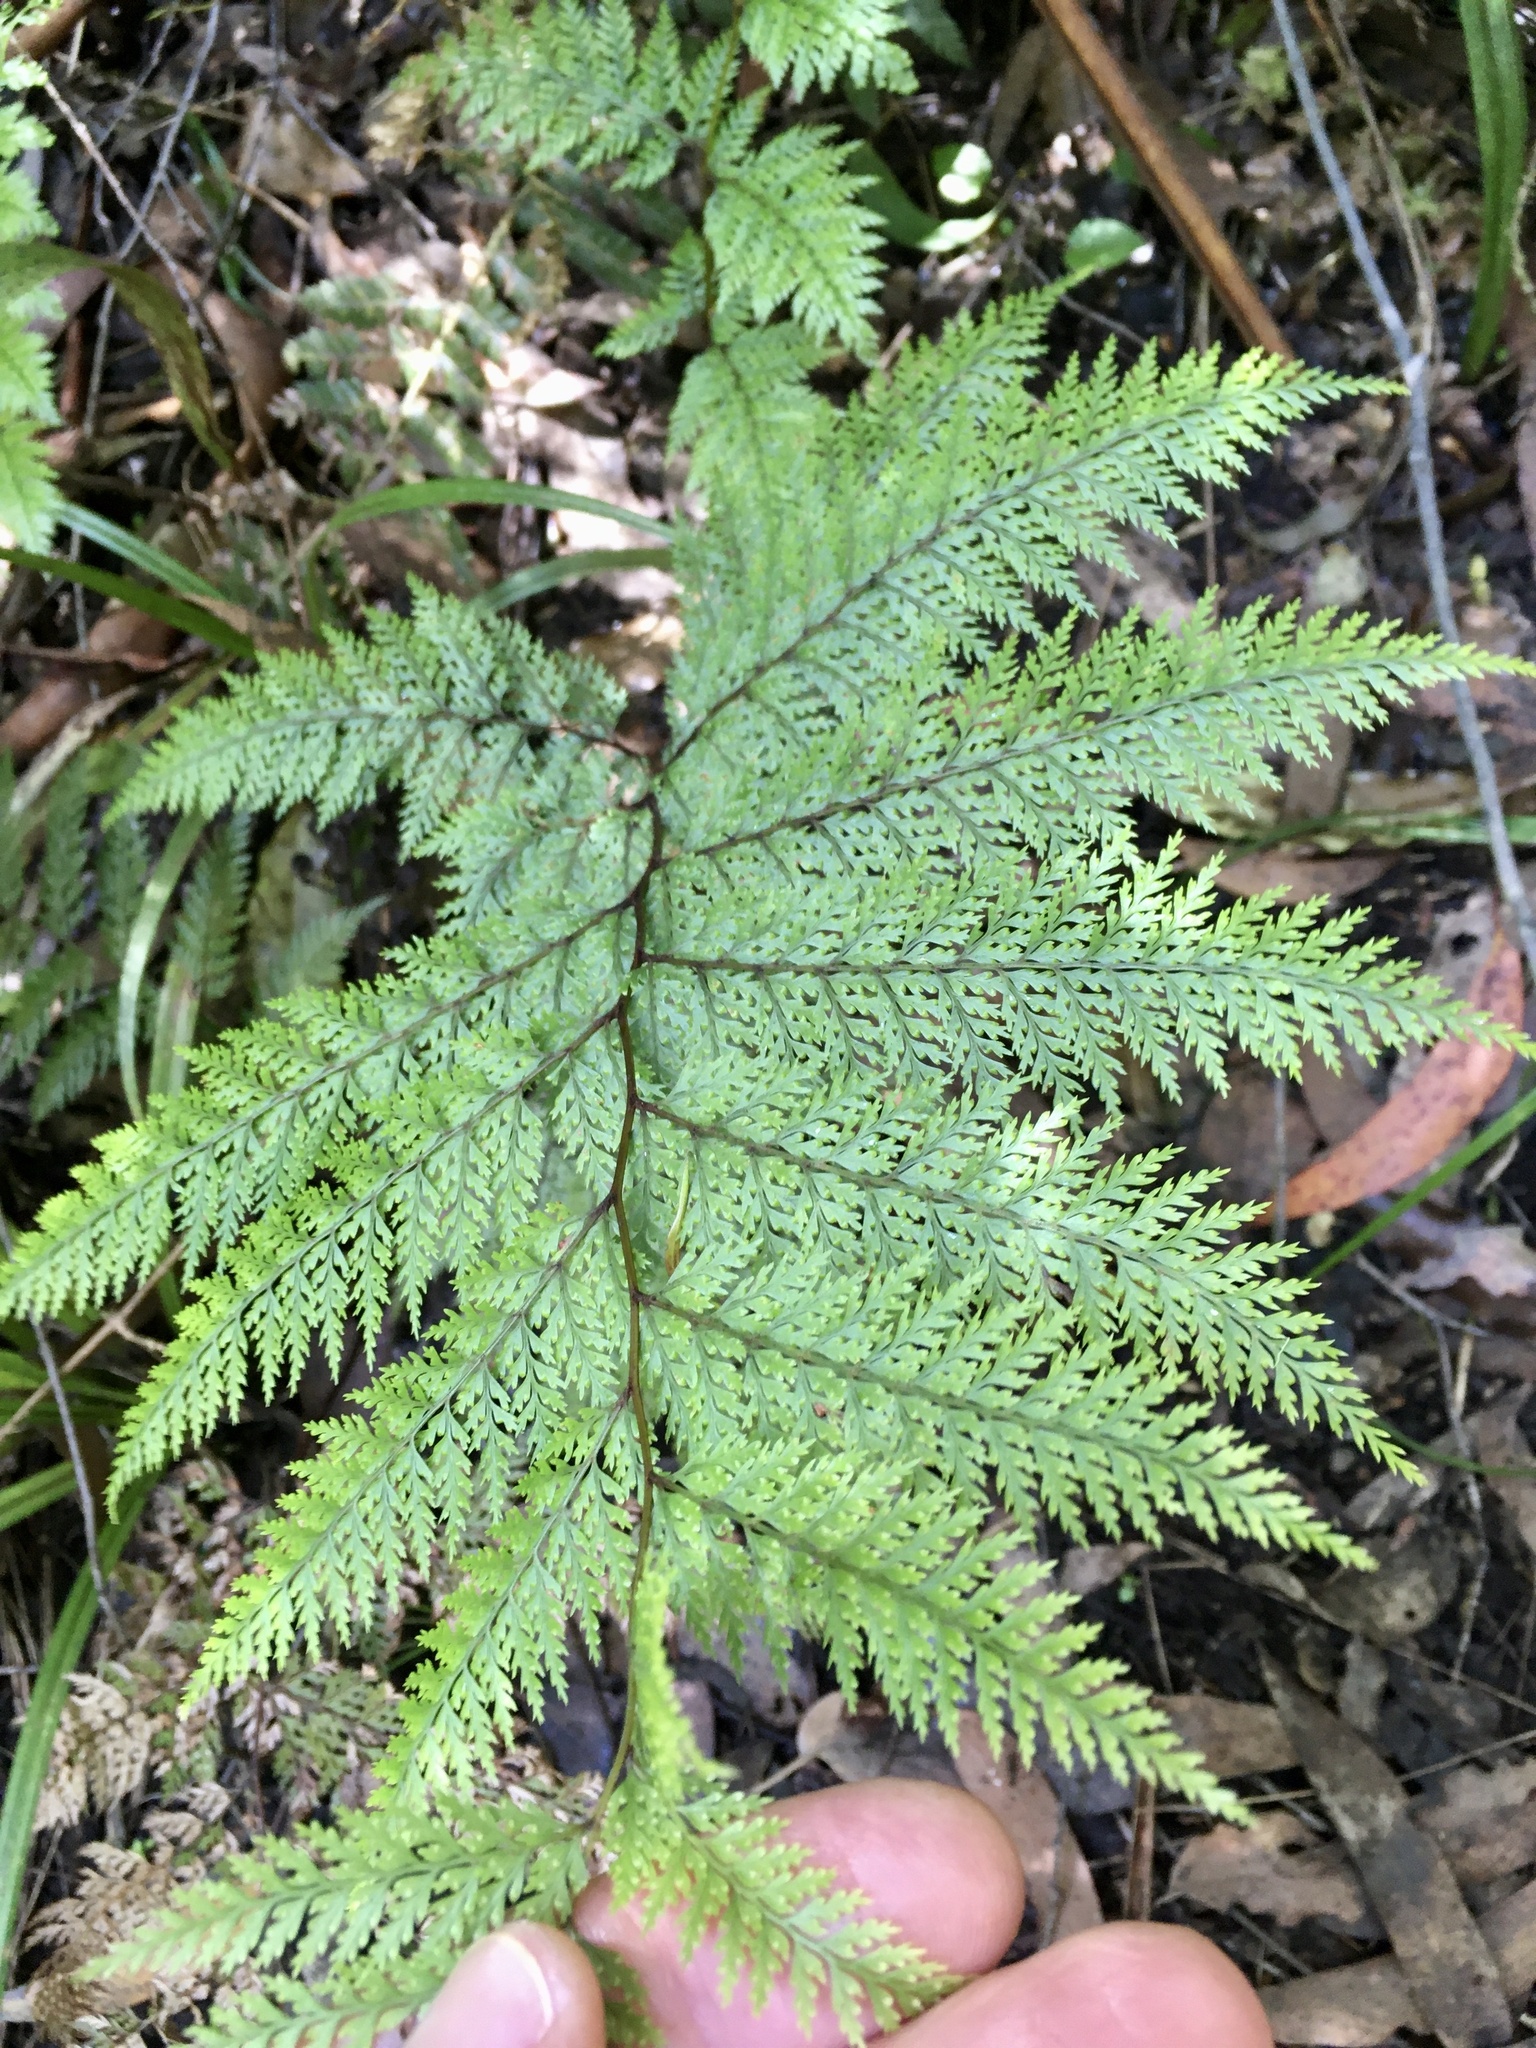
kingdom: Plantae
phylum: Tracheophyta
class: Polypodiopsida
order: Polypodiales
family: Dennstaedtiaceae
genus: Dennstaedtia
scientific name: Dennstaedtia novae-zelandiae
